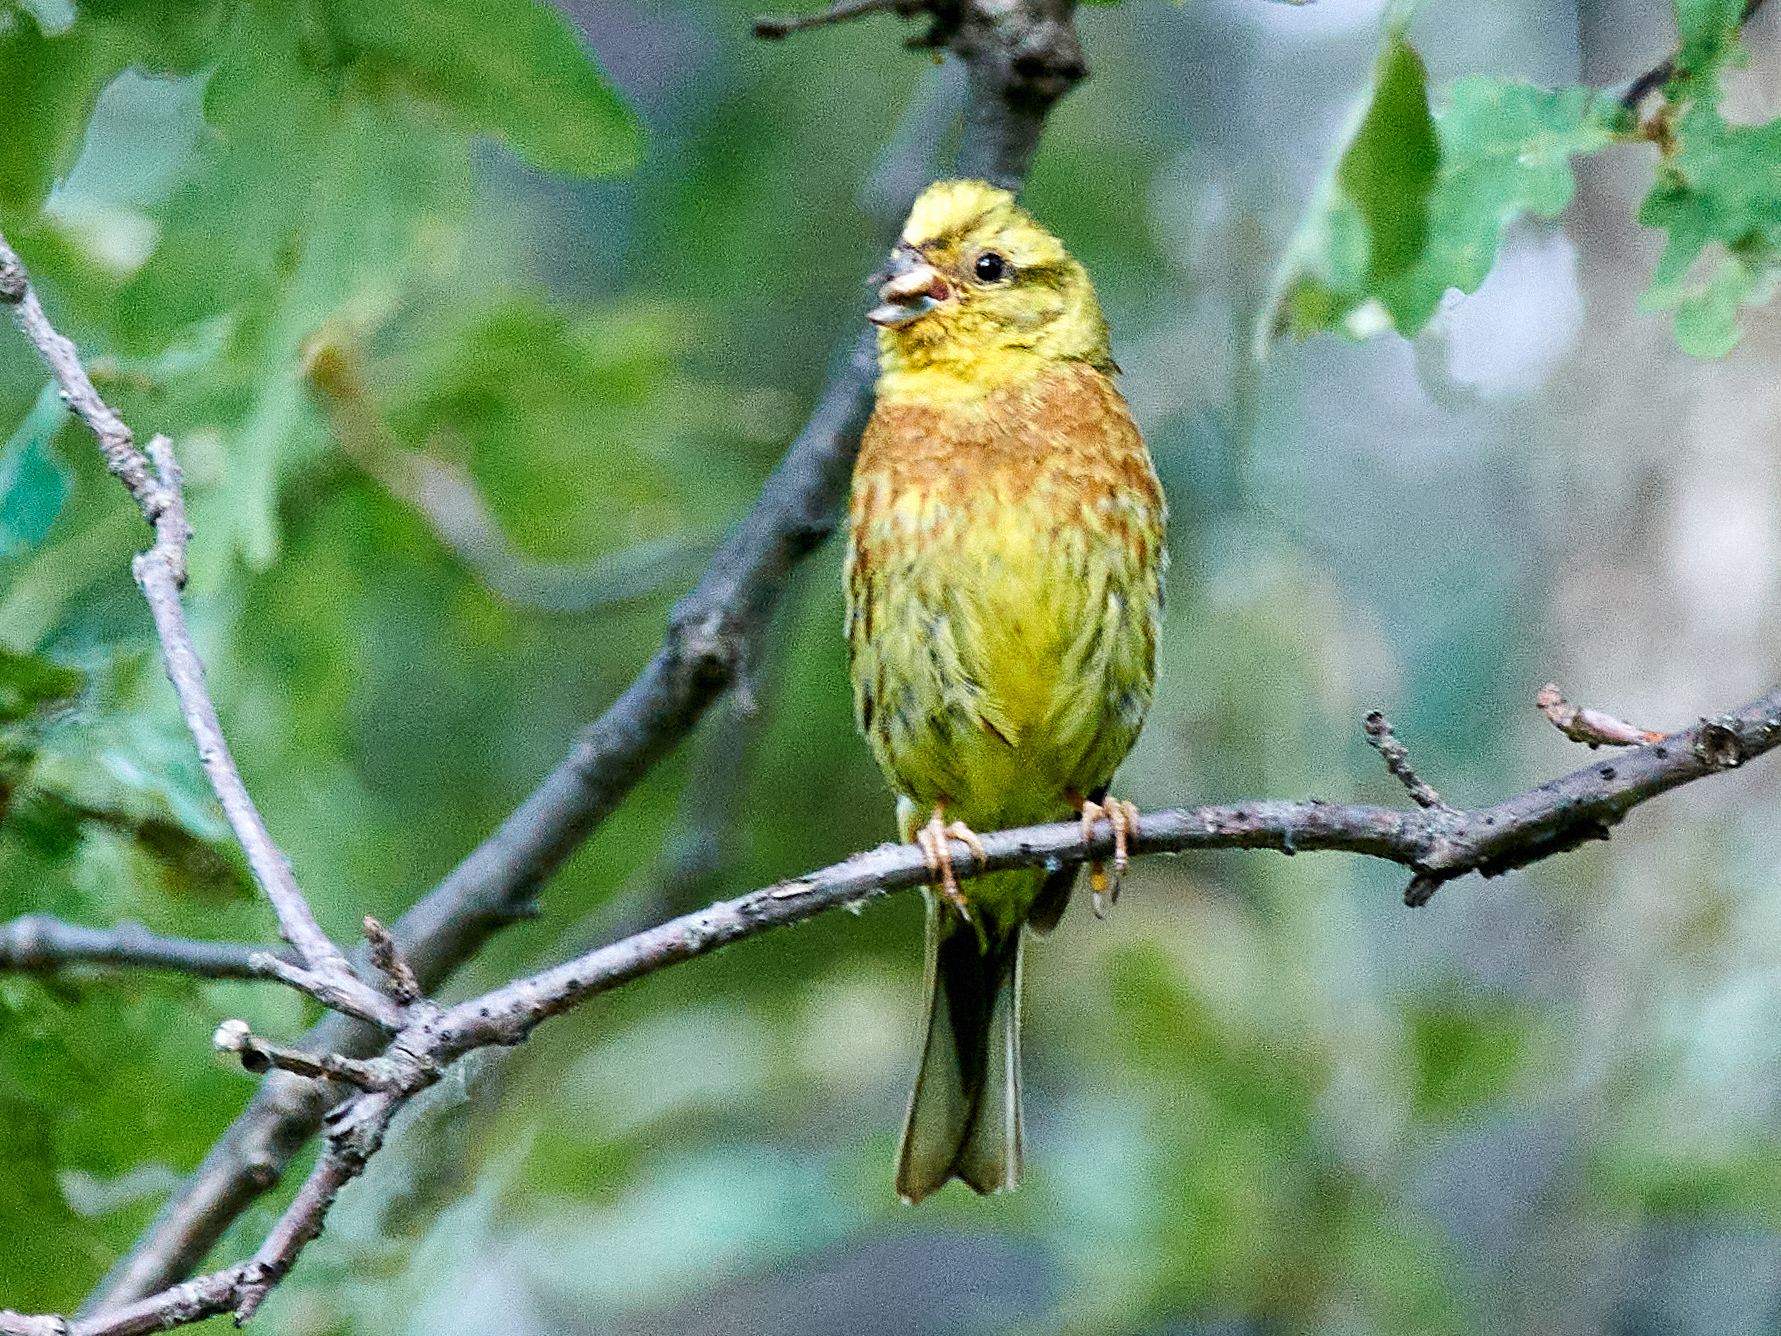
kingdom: Animalia
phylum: Chordata
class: Aves
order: Passeriformes
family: Emberizidae
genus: Emberiza
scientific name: Emberiza citrinella
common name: Yellowhammer
